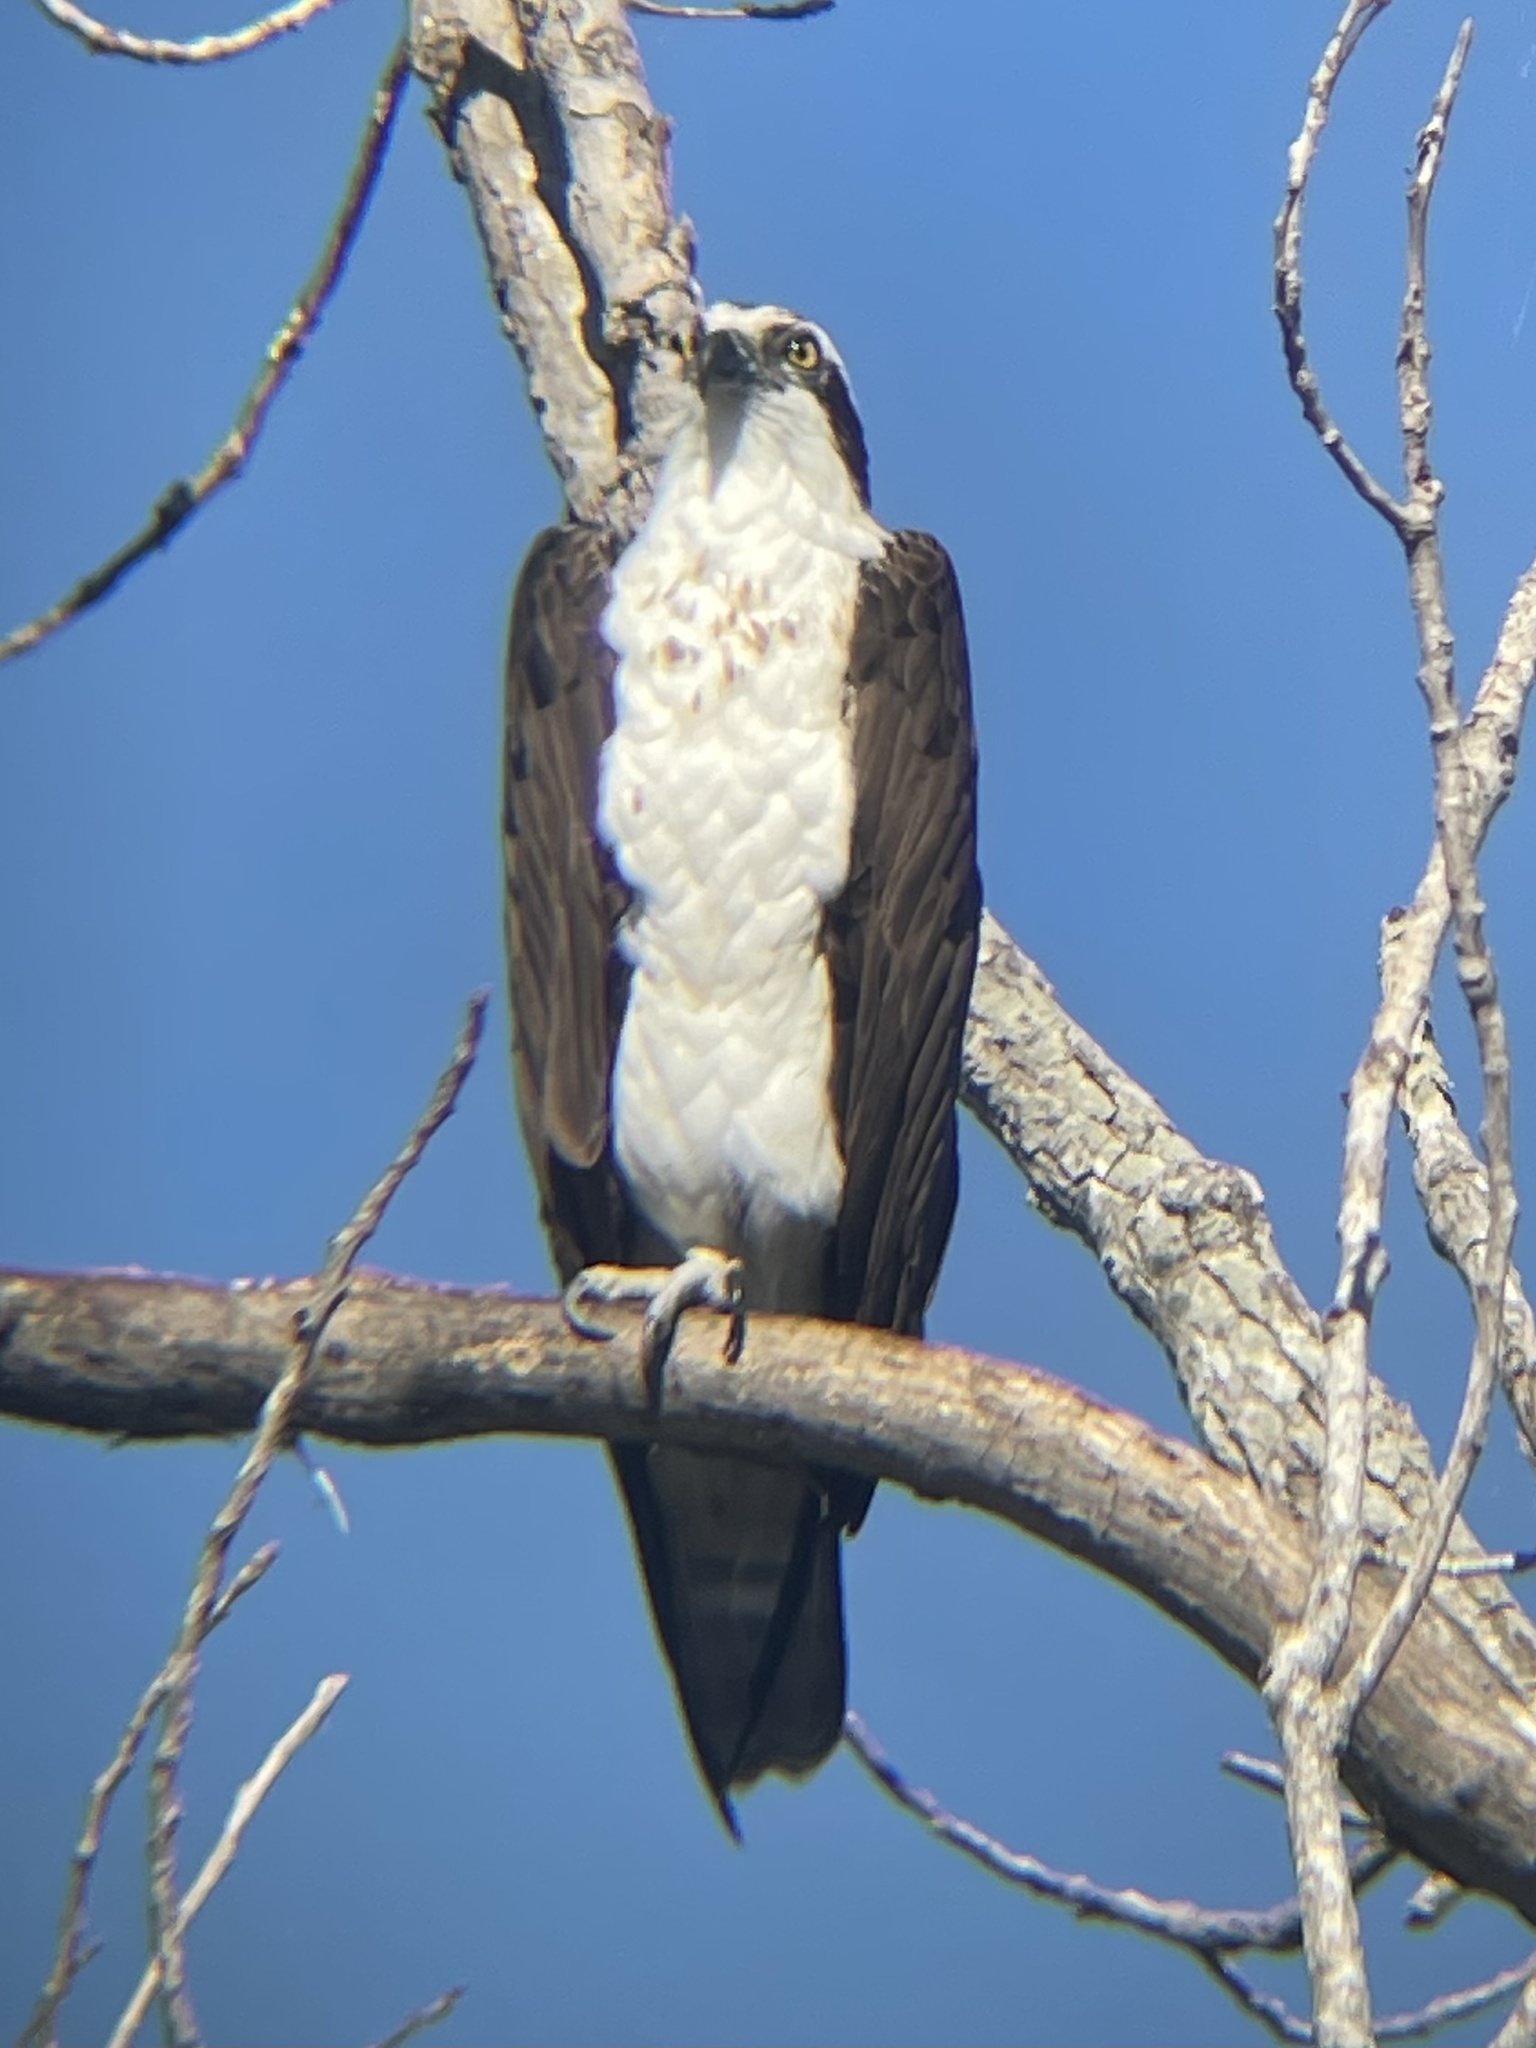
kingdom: Animalia
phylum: Chordata
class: Aves
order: Accipitriformes
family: Pandionidae
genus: Pandion
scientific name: Pandion haliaetus
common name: Osprey
